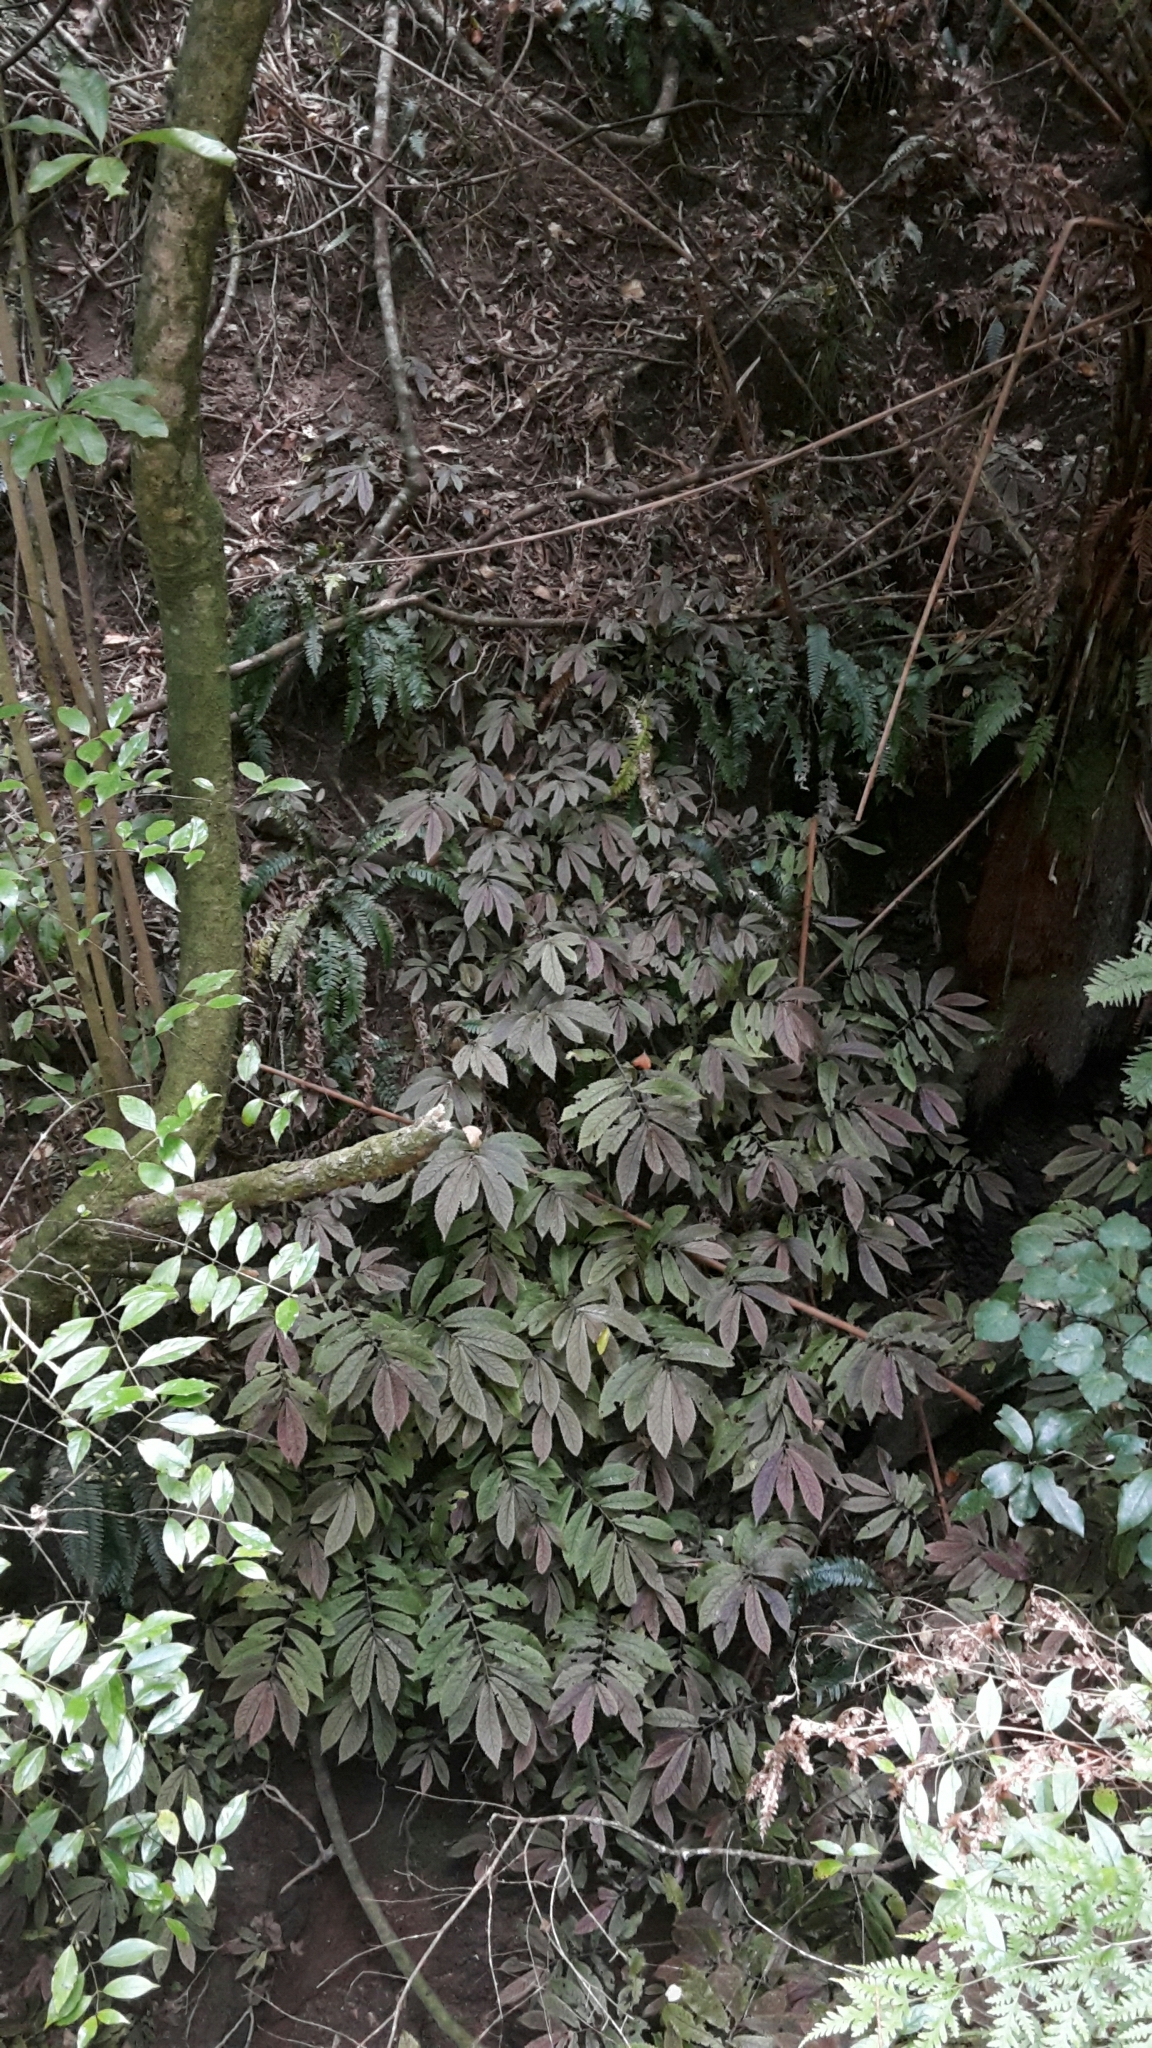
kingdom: Plantae
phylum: Tracheophyta
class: Magnoliopsida
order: Rosales
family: Urticaceae
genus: Elatostema
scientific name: Elatostema rugosum
